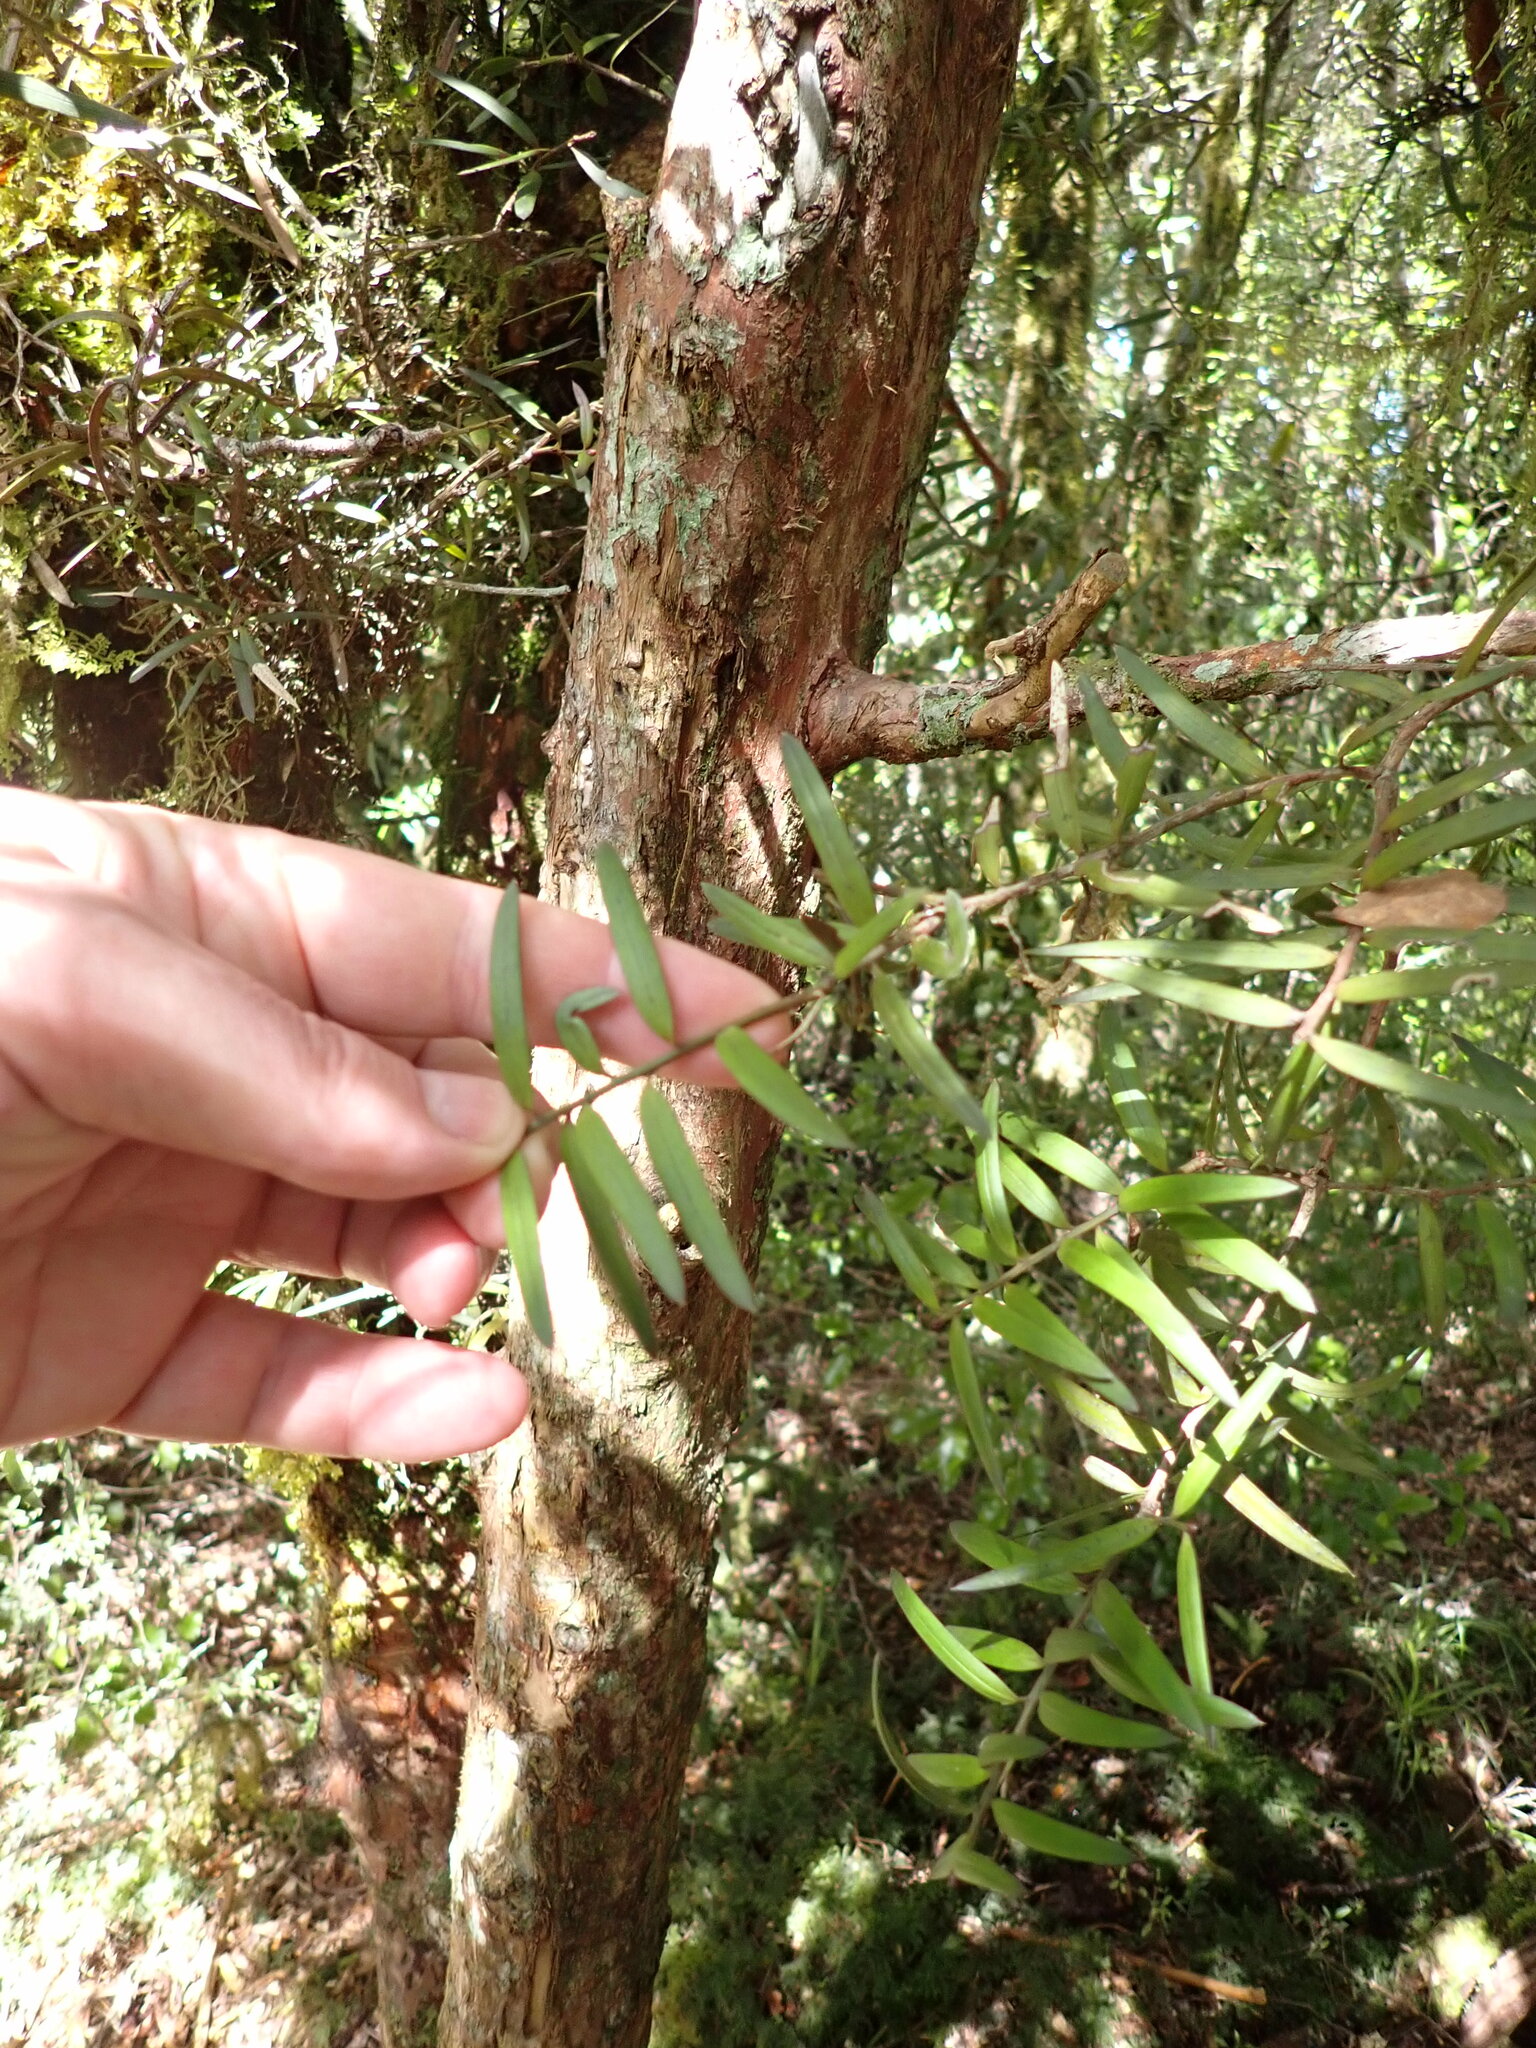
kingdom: Plantae
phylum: Tracheophyta
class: Pinopsida
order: Pinales
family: Podocarpaceae
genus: Podocarpus
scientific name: Podocarpus laetus
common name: Hall's totara
